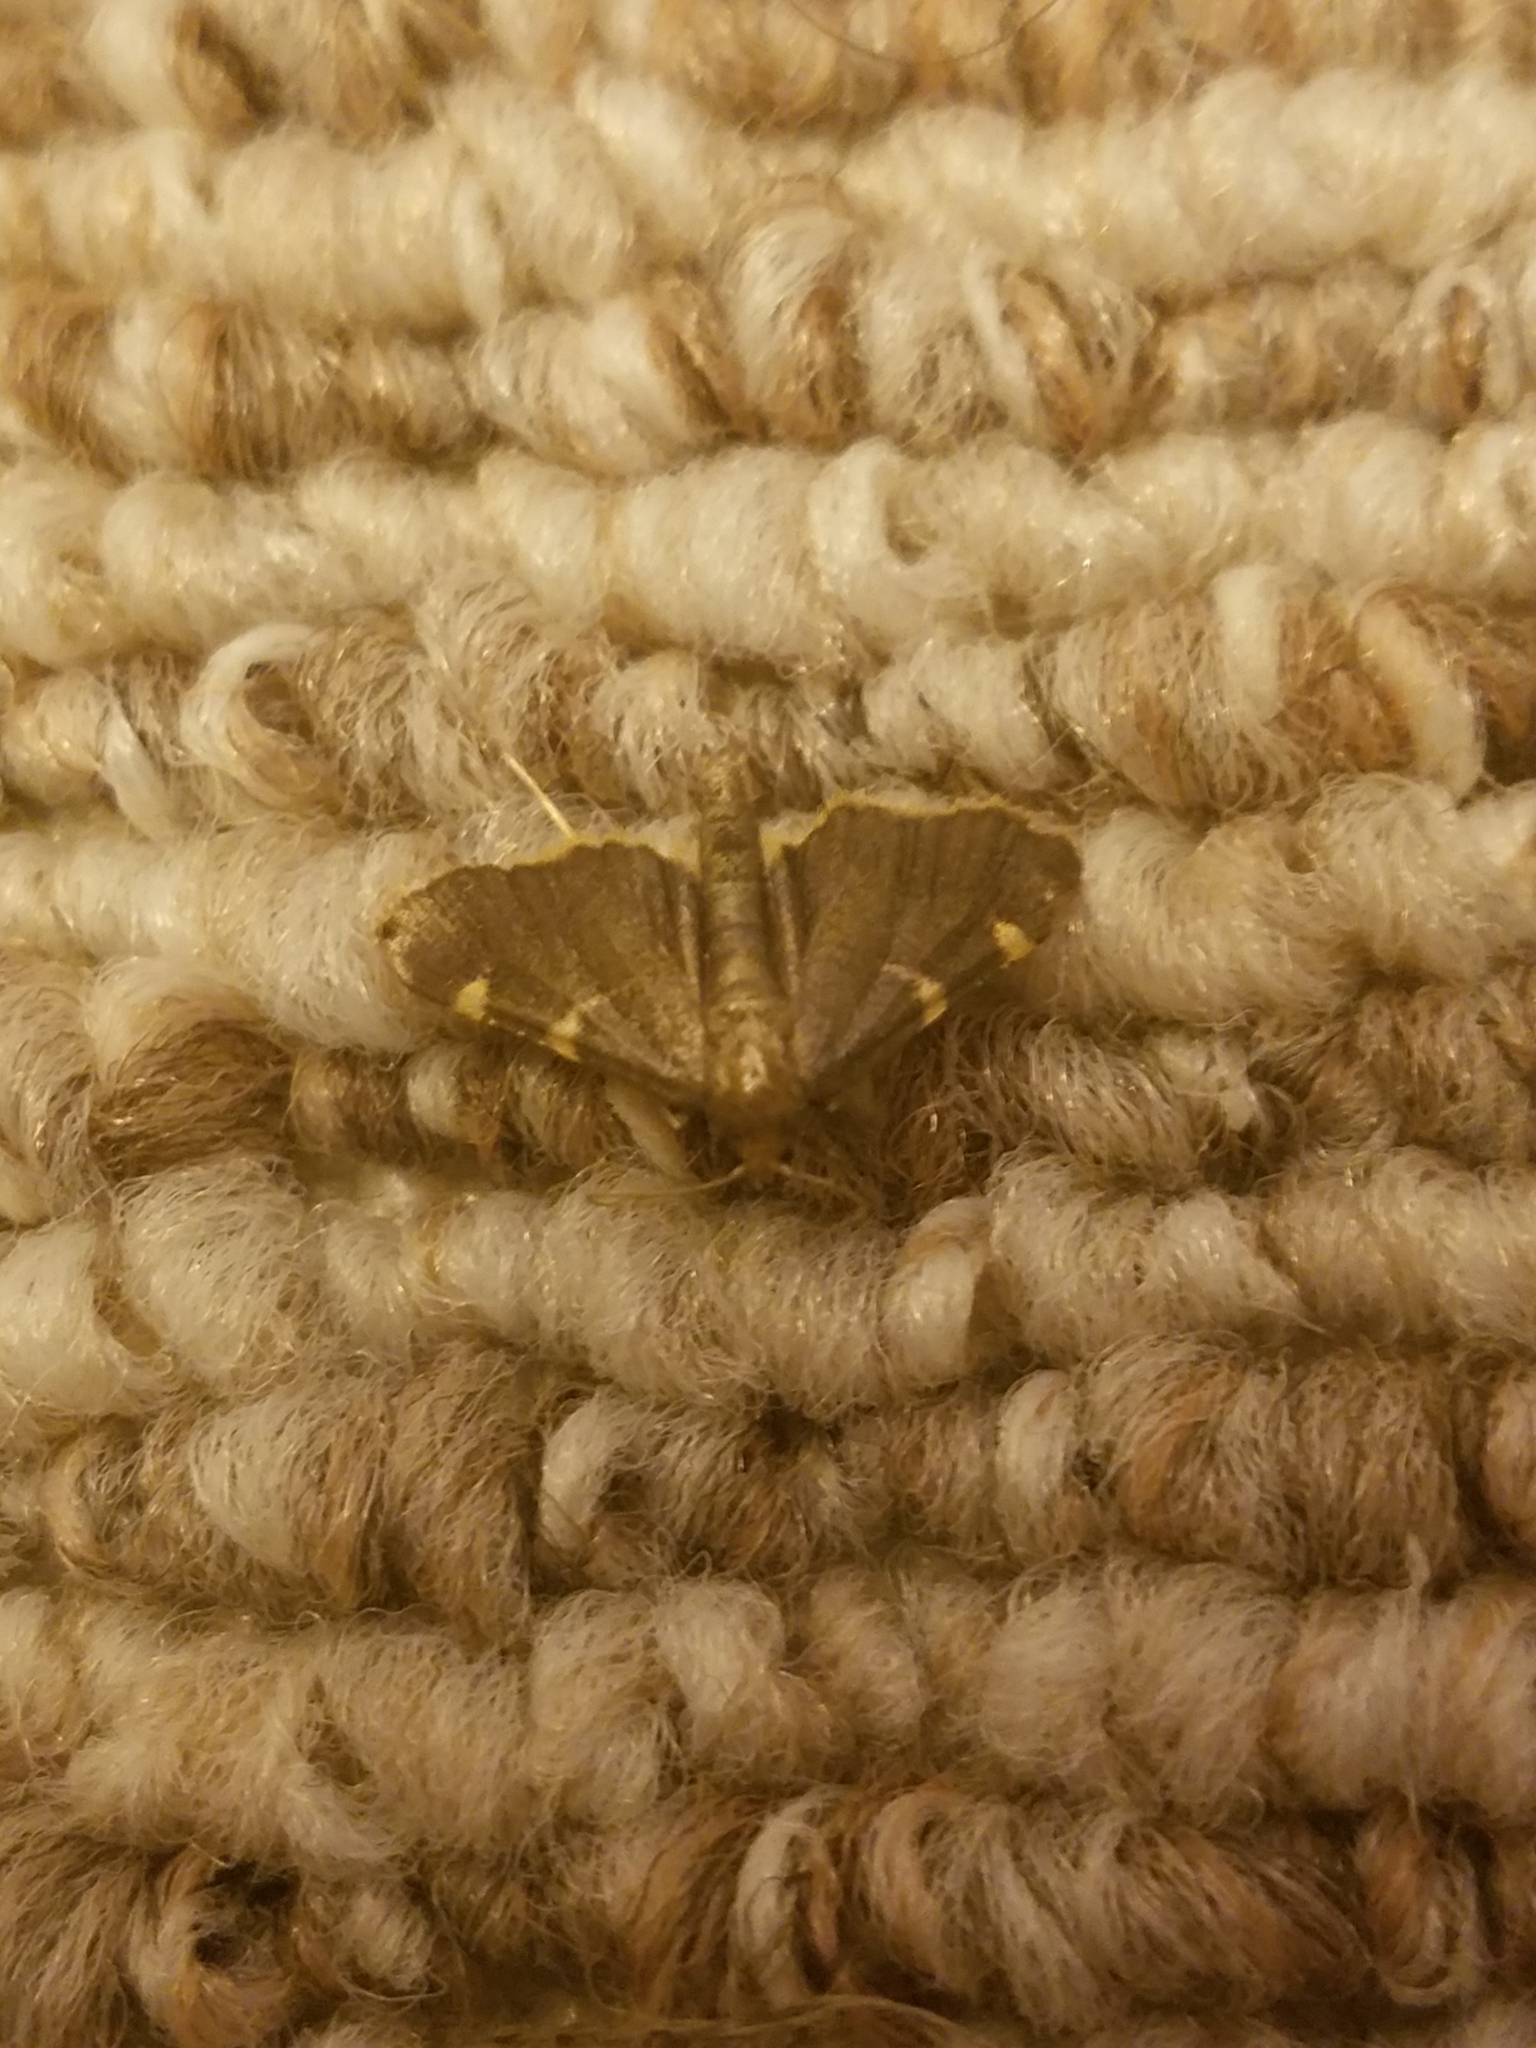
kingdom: Animalia
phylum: Arthropoda
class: Insecta
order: Lepidoptera
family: Pyralidae
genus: Hypsopygia
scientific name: Hypsopygia olinalis
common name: Yellow-fringed dolichomia moth
